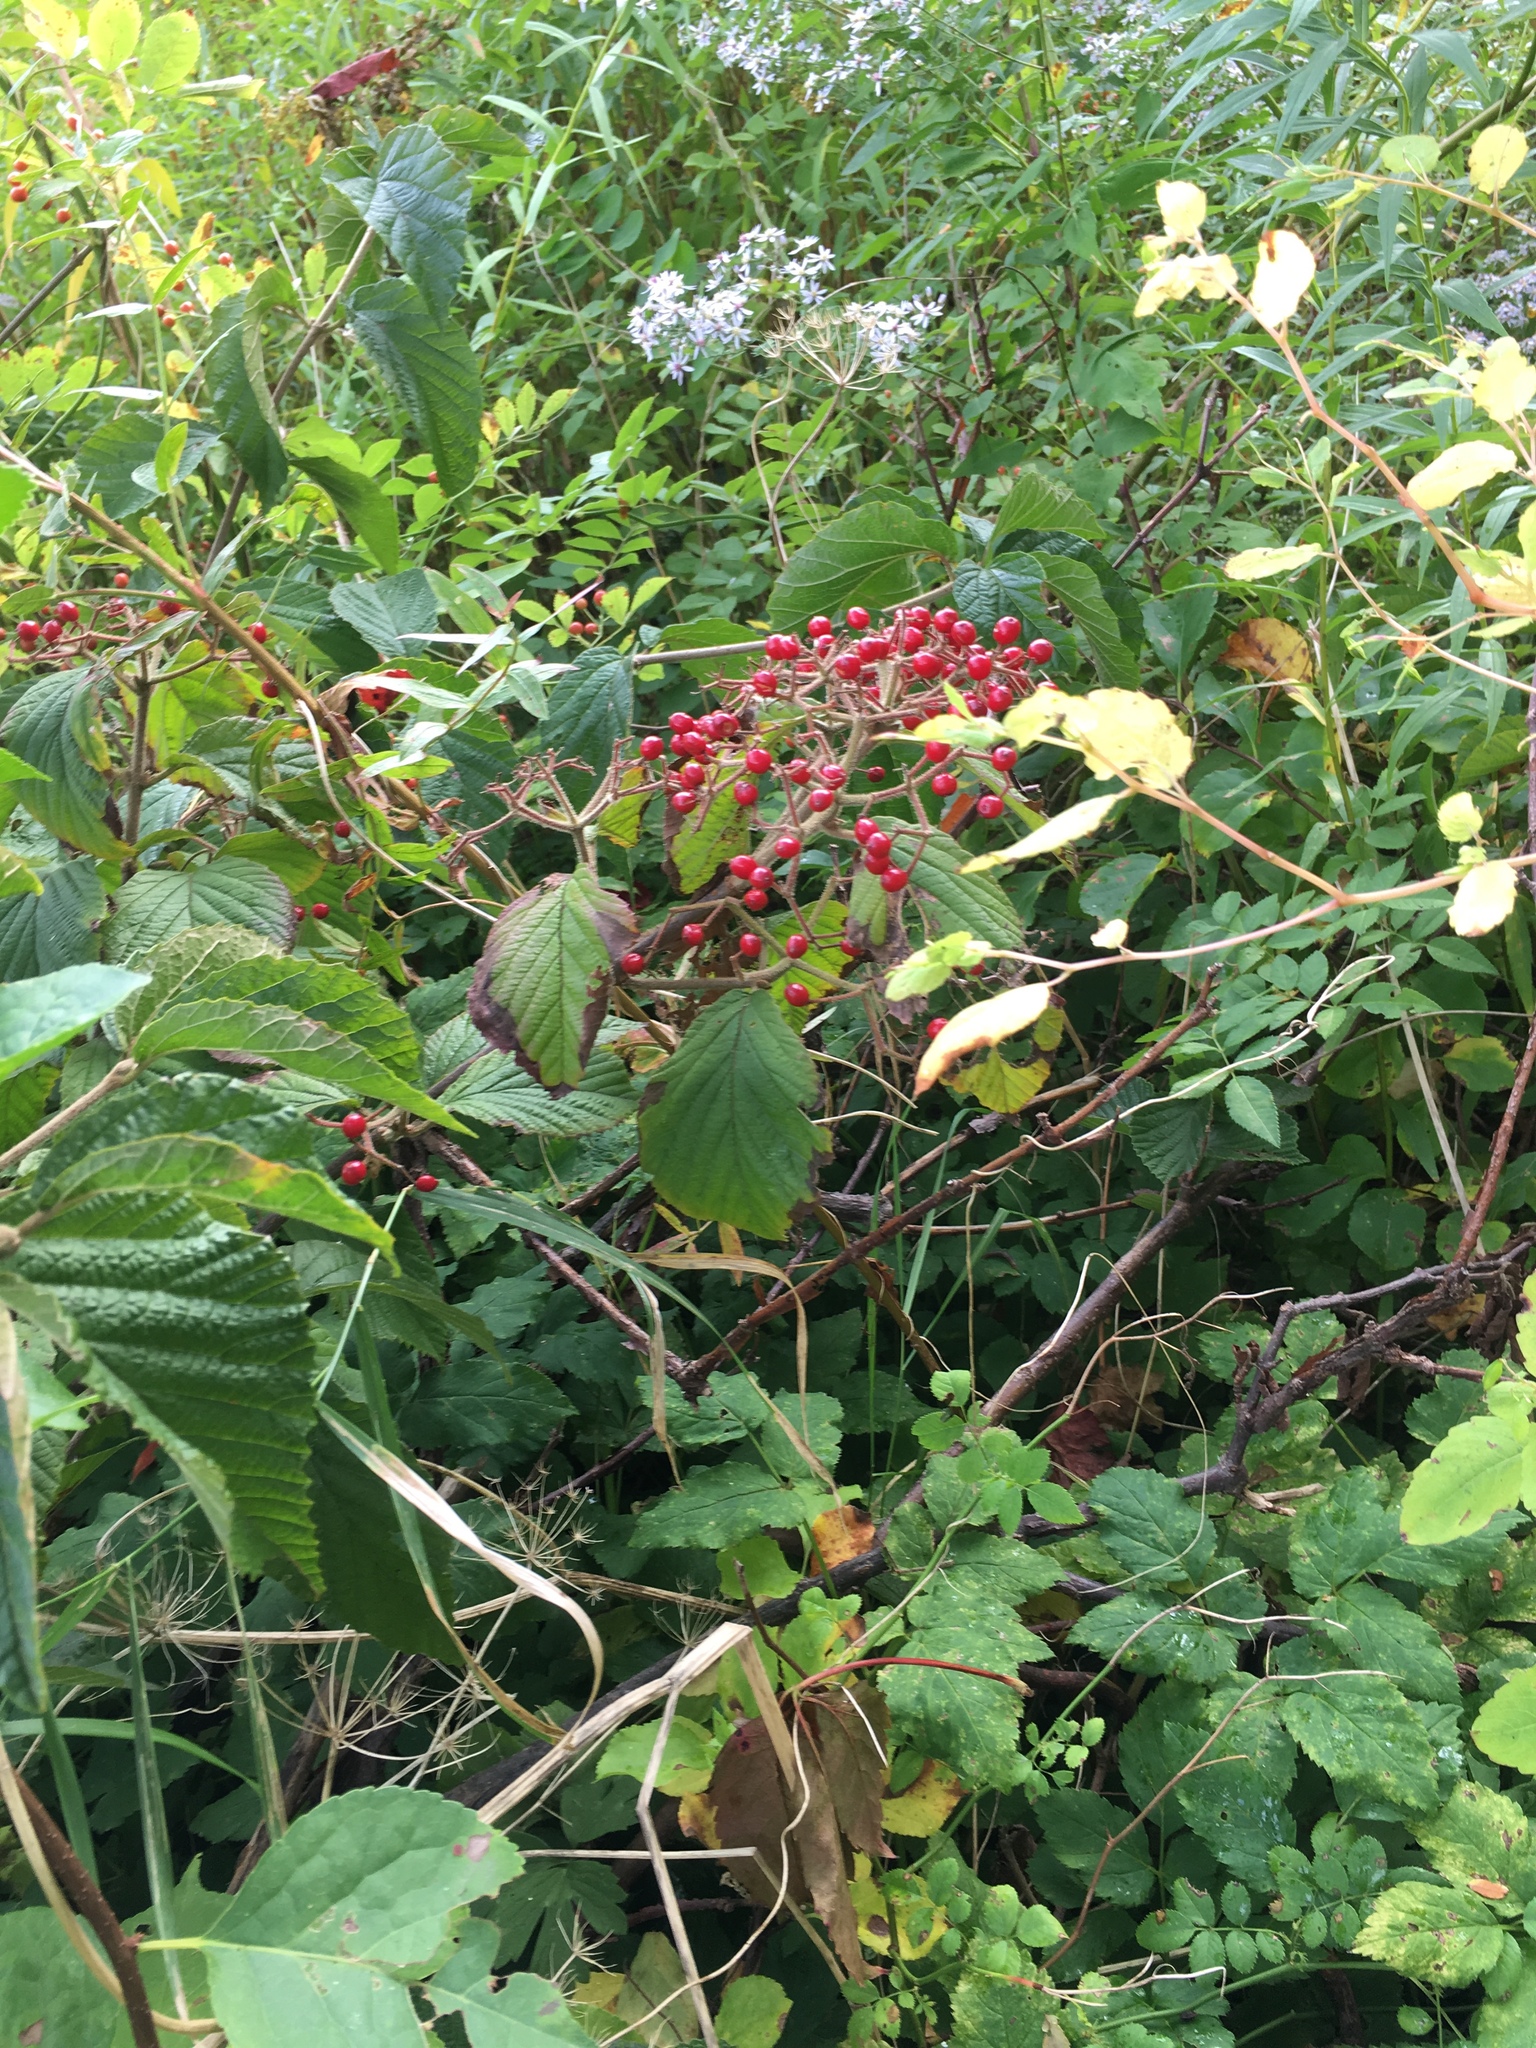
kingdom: Plantae
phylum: Tracheophyta
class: Magnoliopsida
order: Dipsacales
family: Viburnaceae
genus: Sambucus
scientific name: Sambucus canadensis
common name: American elder
